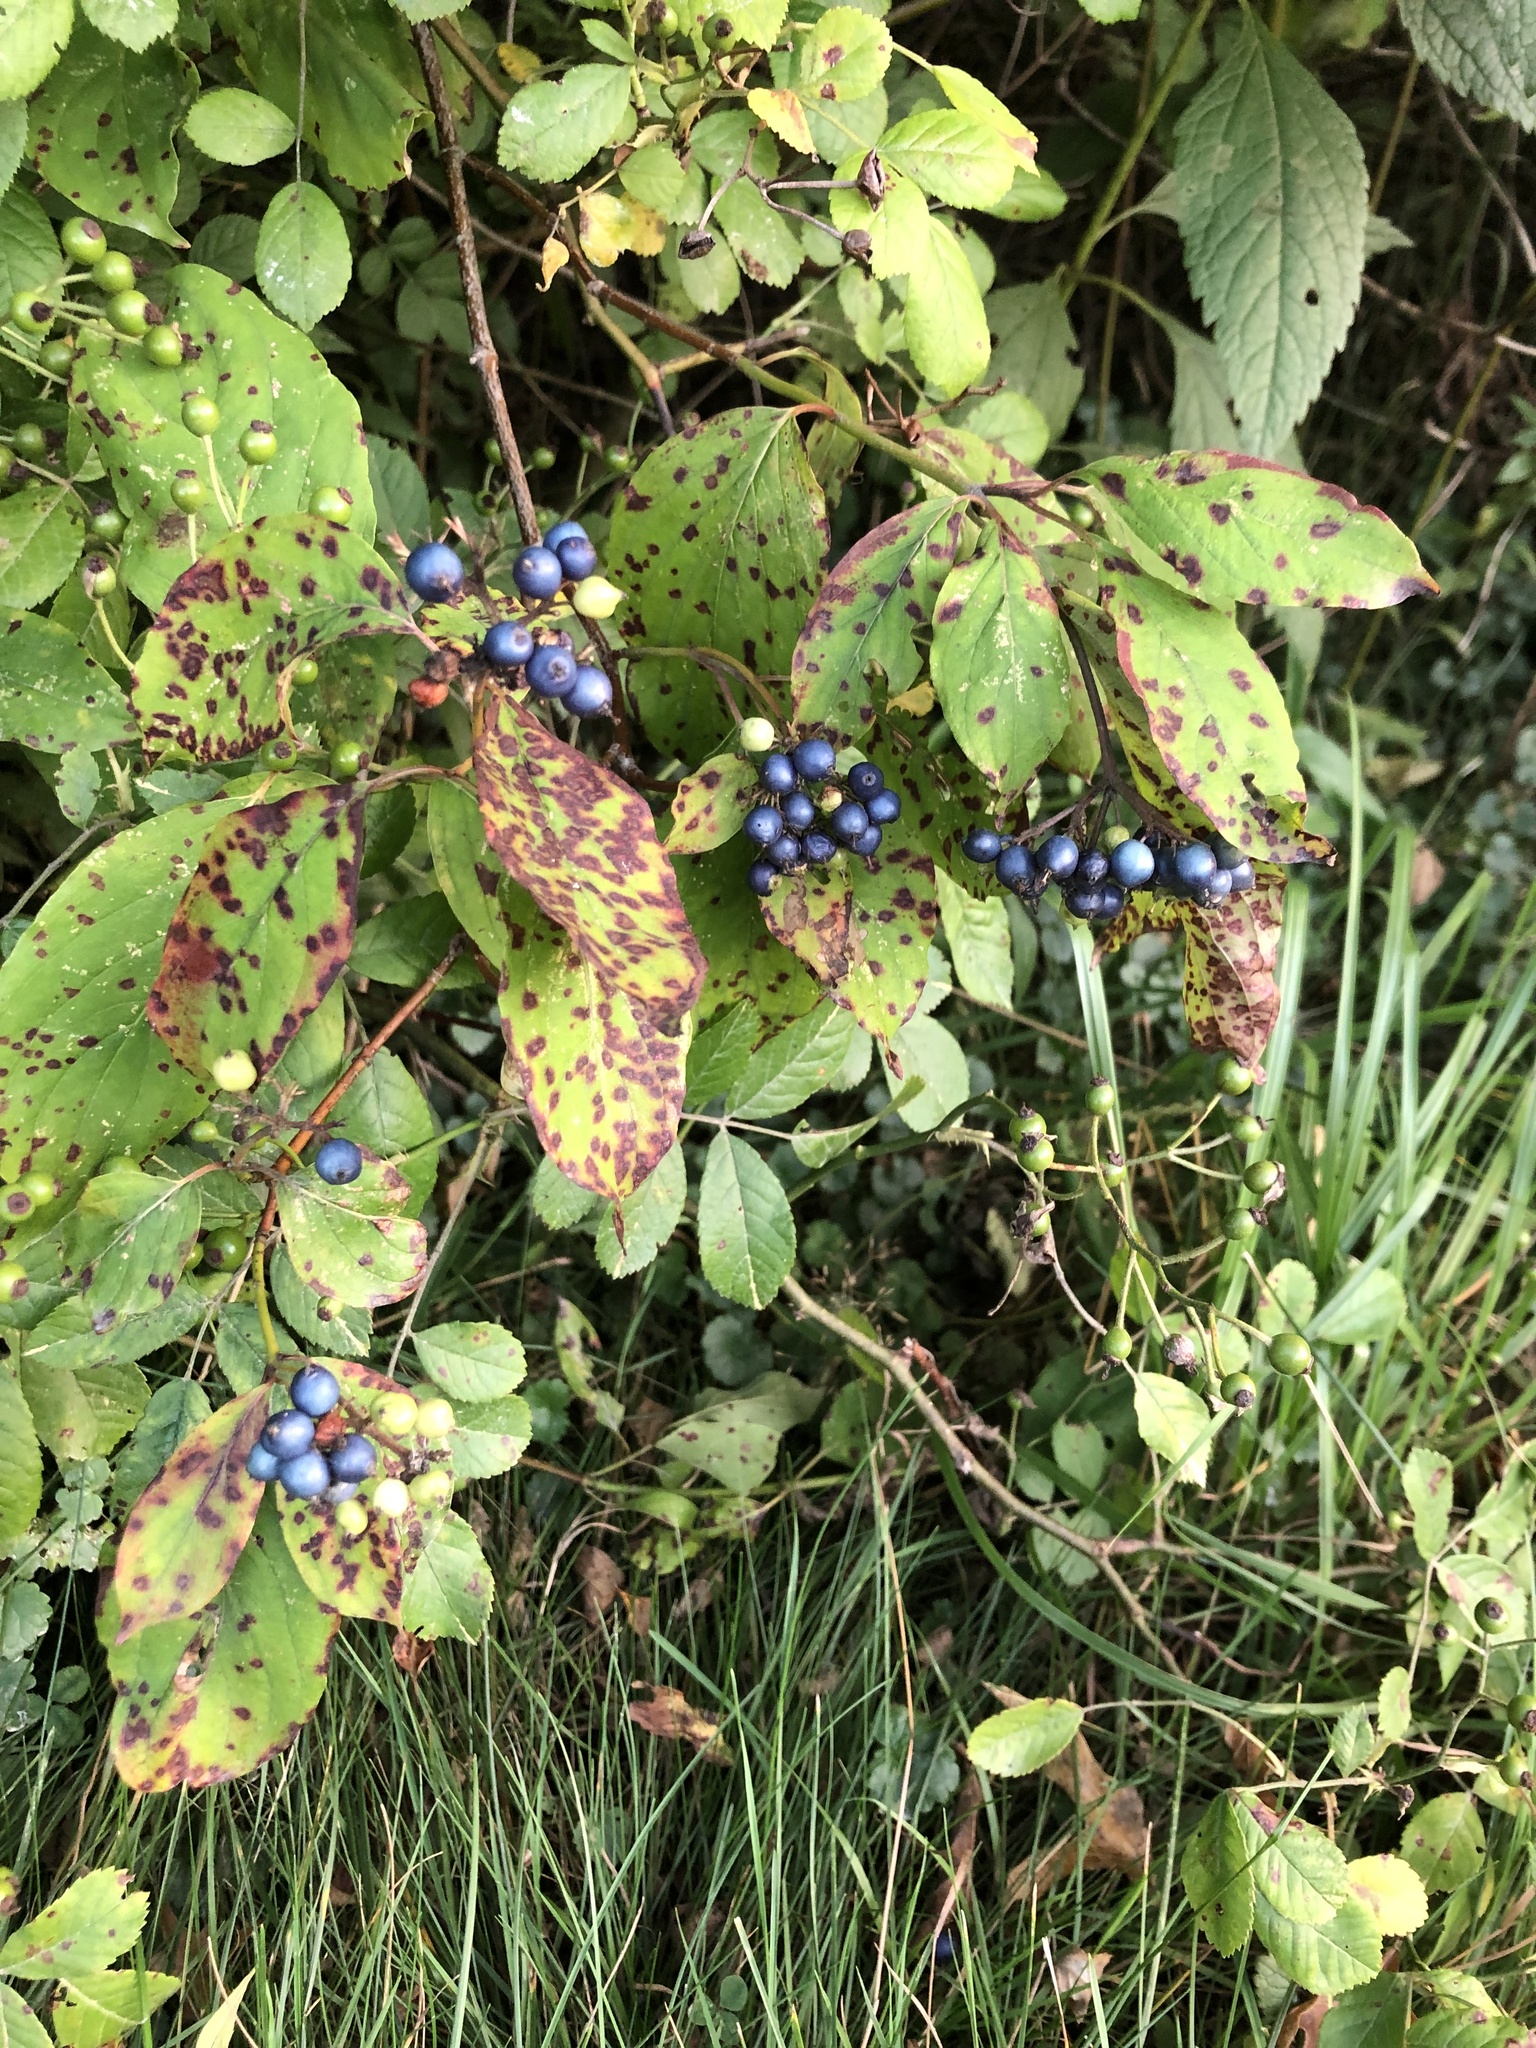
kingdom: Plantae
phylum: Tracheophyta
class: Magnoliopsida
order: Cornales
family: Cornaceae
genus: Cornus
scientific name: Cornus amomum
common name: Silky dogwood
